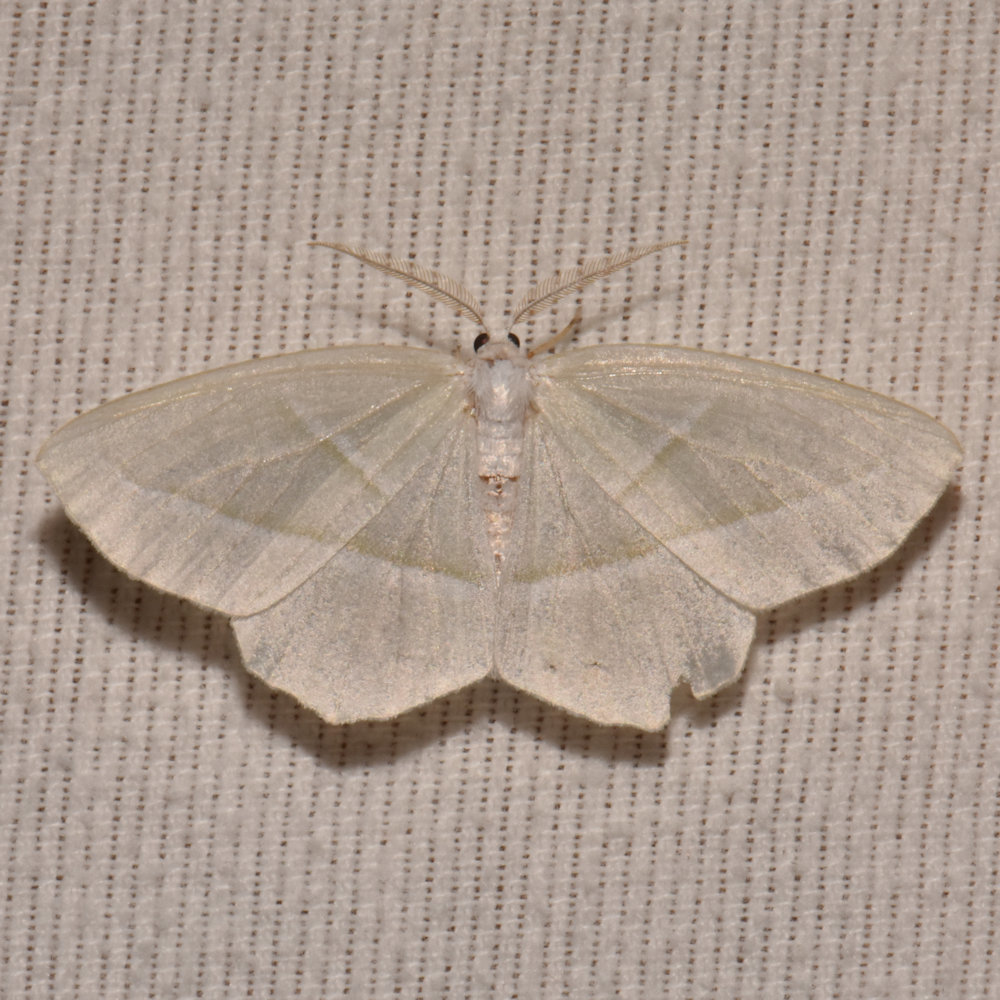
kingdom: Animalia
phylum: Arthropoda
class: Insecta
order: Lepidoptera
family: Geometridae
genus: Campaea
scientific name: Campaea perlata
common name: Fringed looper
